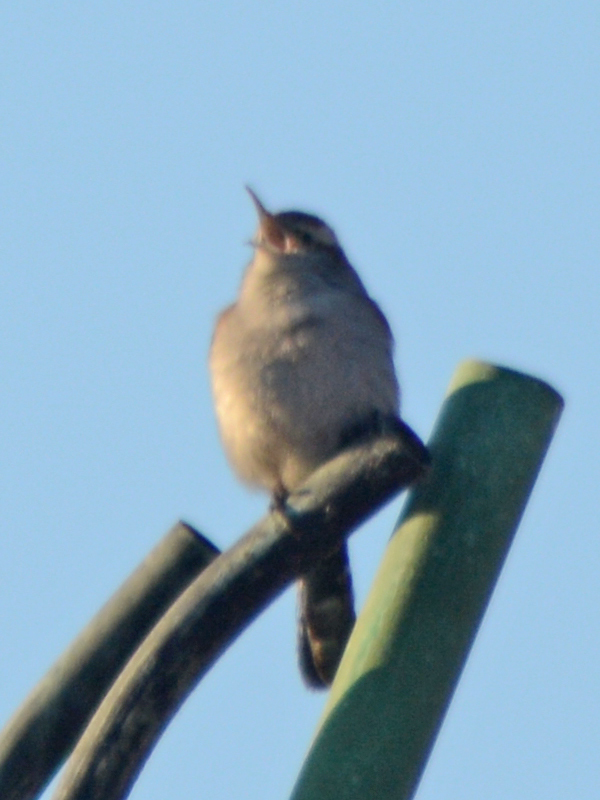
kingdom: Animalia
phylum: Chordata
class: Aves
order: Passeriformes
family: Troglodytidae
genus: Thryomanes
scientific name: Thryomanes bewickii
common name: Bewick's wren
